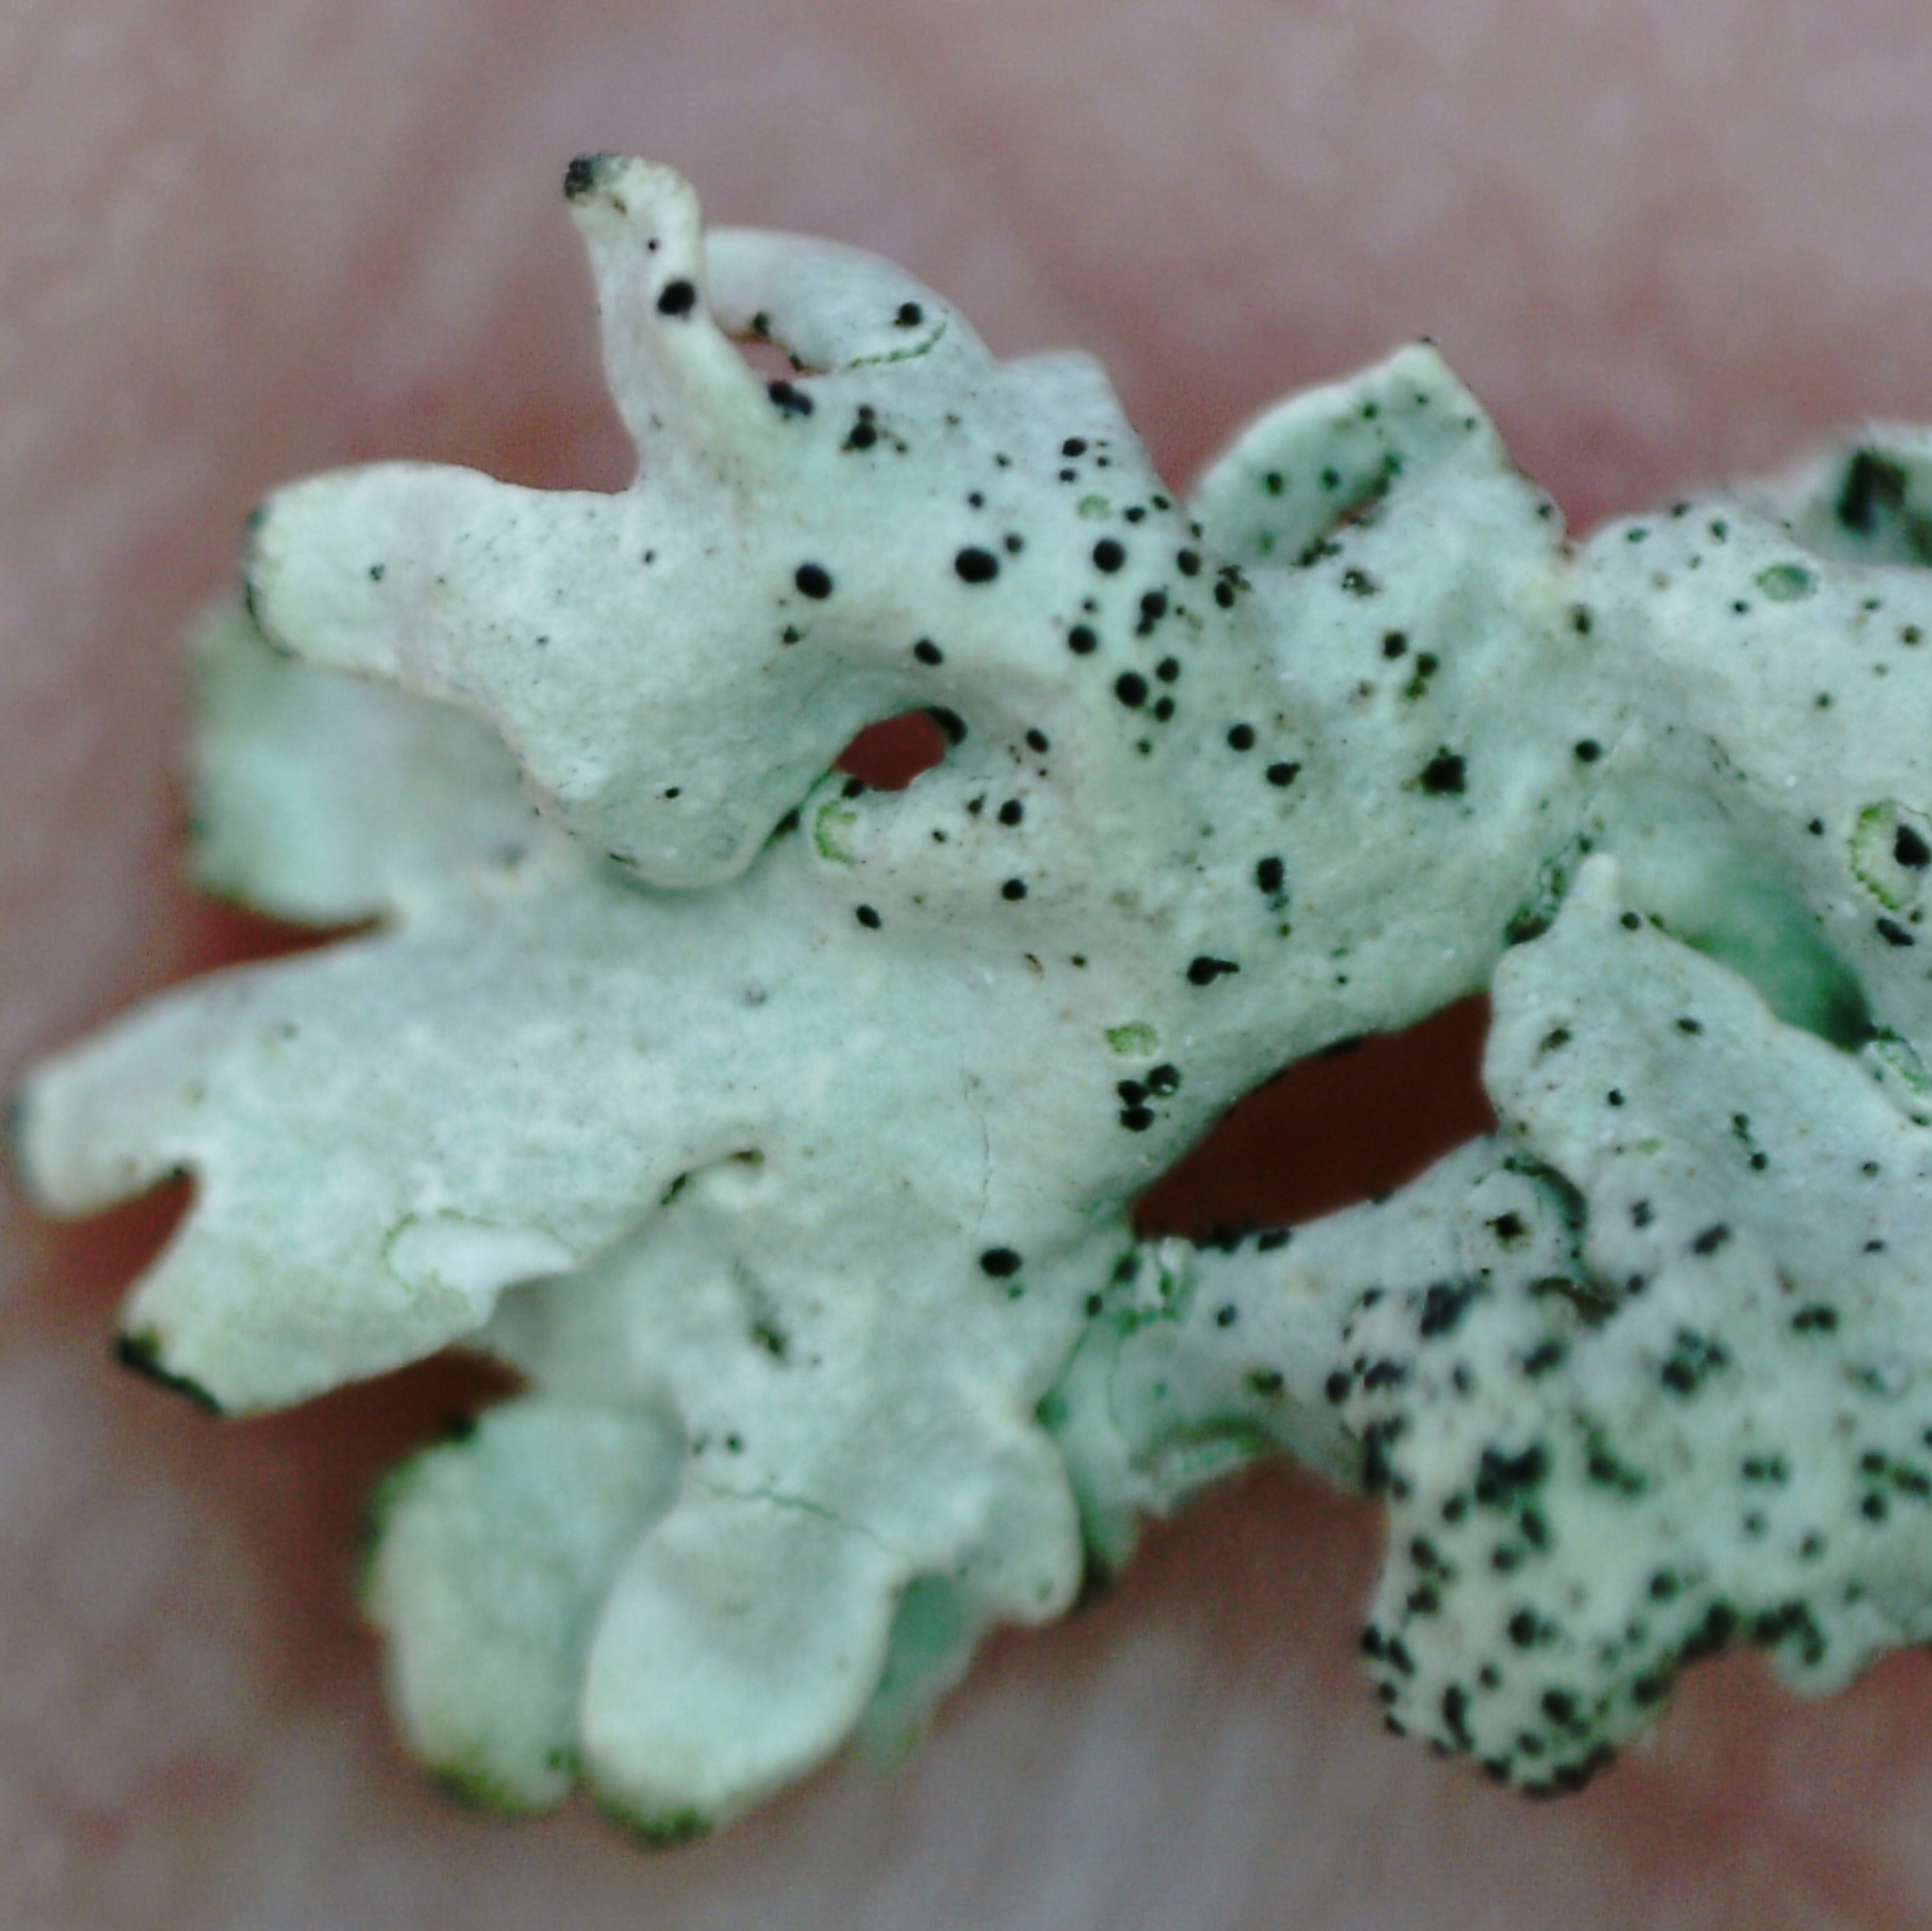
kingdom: Fungi
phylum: Ascomycota
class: Lecanoromycetes
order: Lecanorales
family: Parmeliaceae
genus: Arctoparmelia
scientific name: Arctoparmelia centrifuga
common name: Concentric ring lichen
